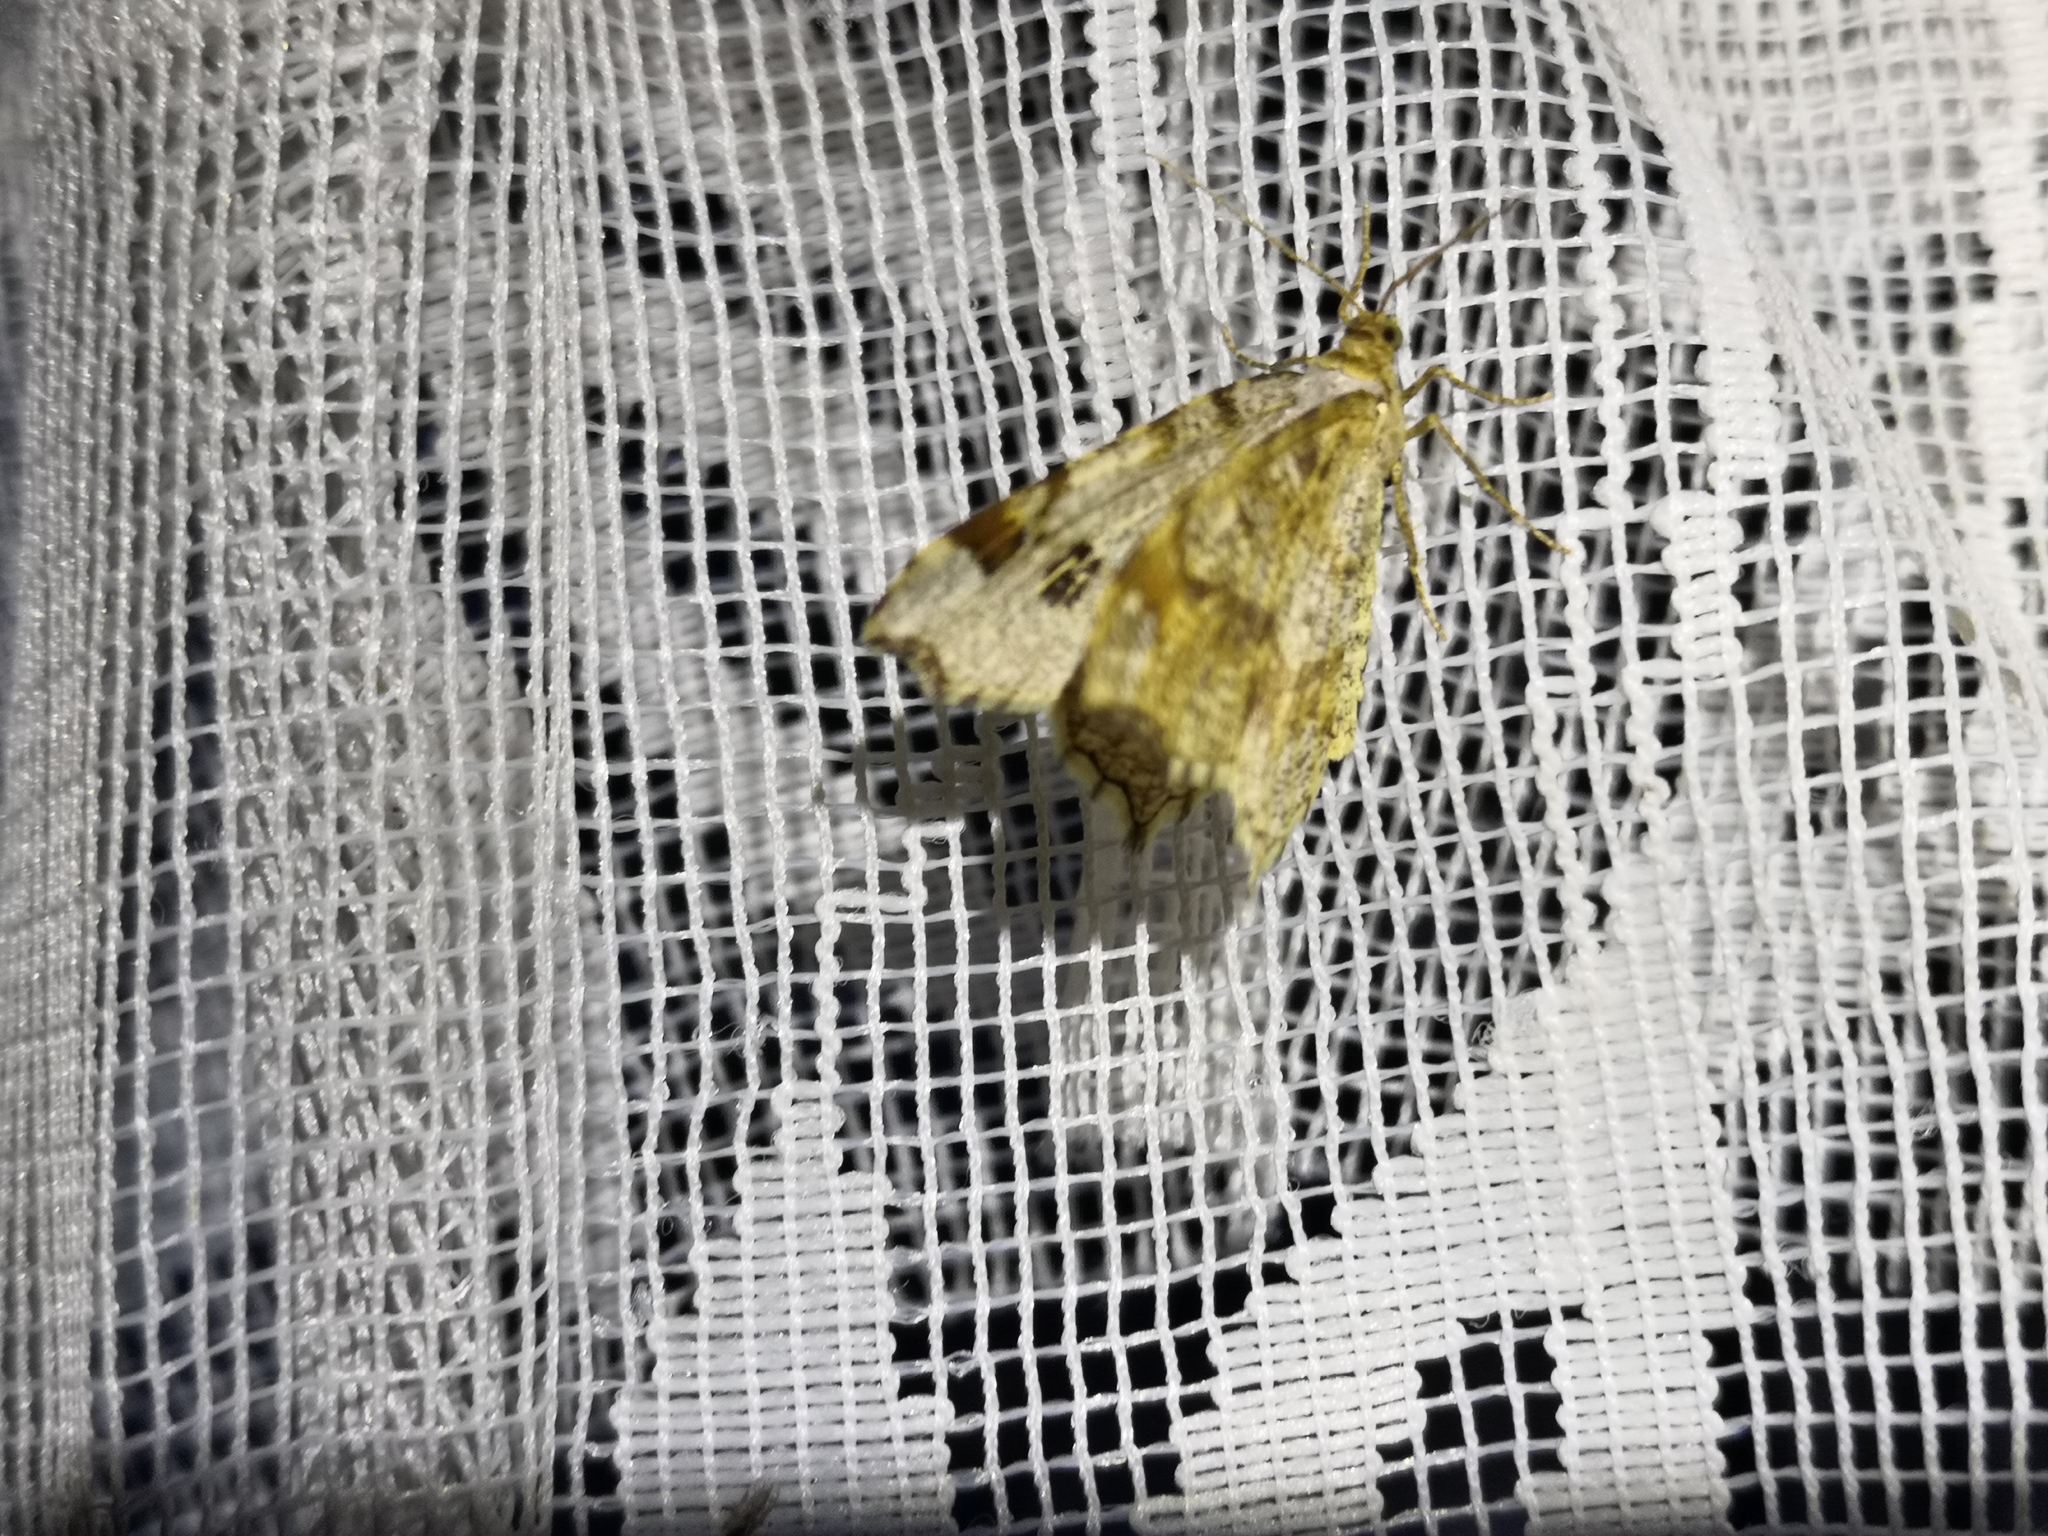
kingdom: Animalia
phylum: Arthropoda
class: Insecta
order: Lepidoptera
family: Geometridae
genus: Macaria
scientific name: Macaria notata
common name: Peacock moth
